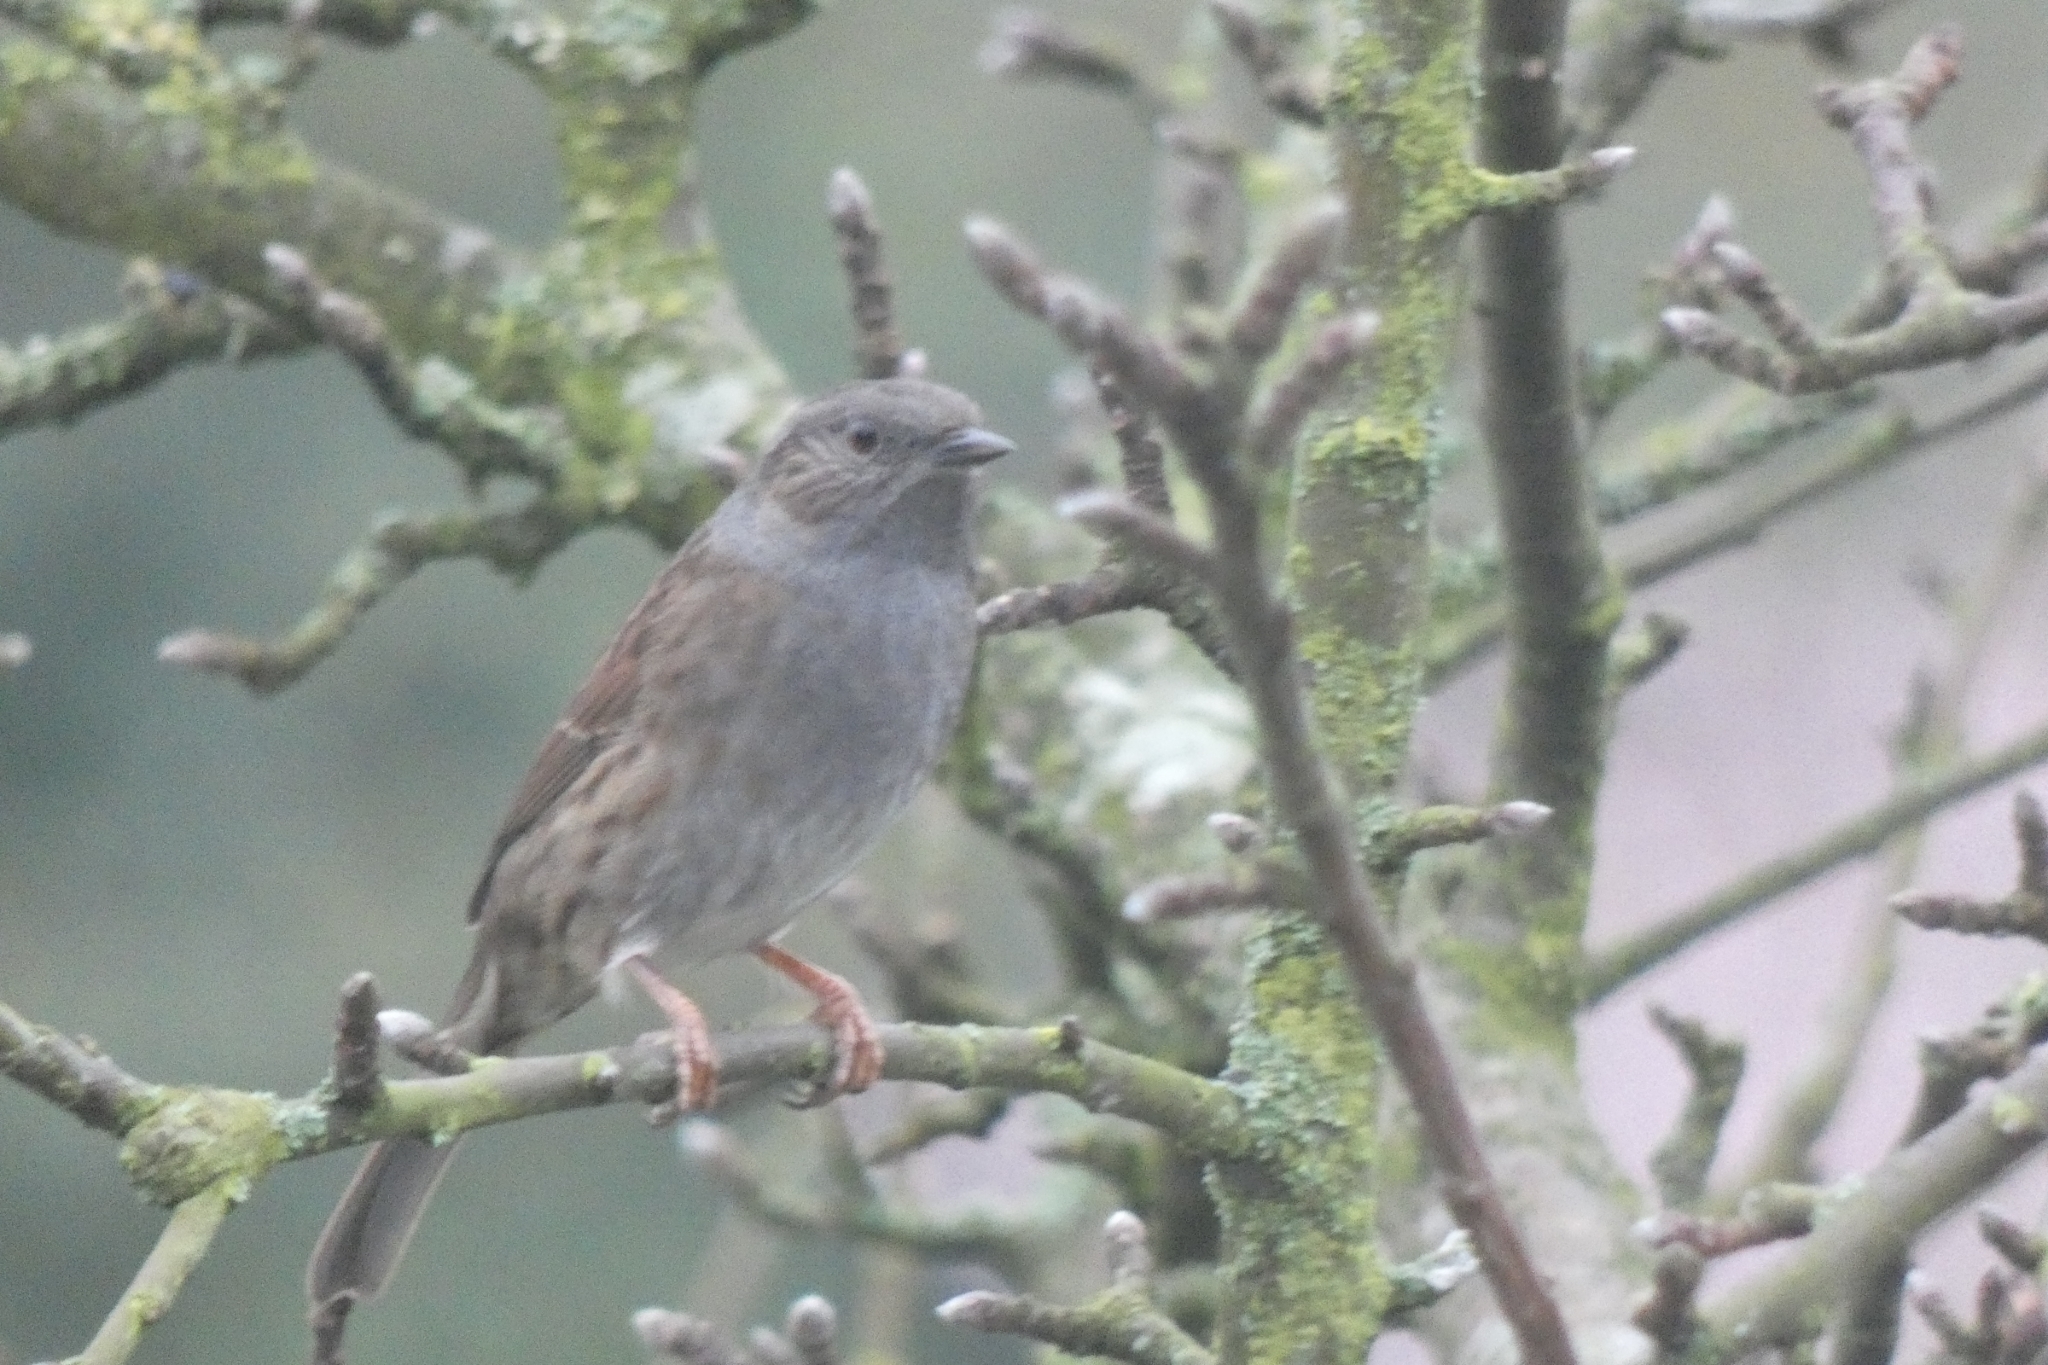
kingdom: Animalia
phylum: Chordata
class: Aves
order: Passeriformes
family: Prunellidae
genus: Prunella
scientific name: Prunella modularis
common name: Dunnock
